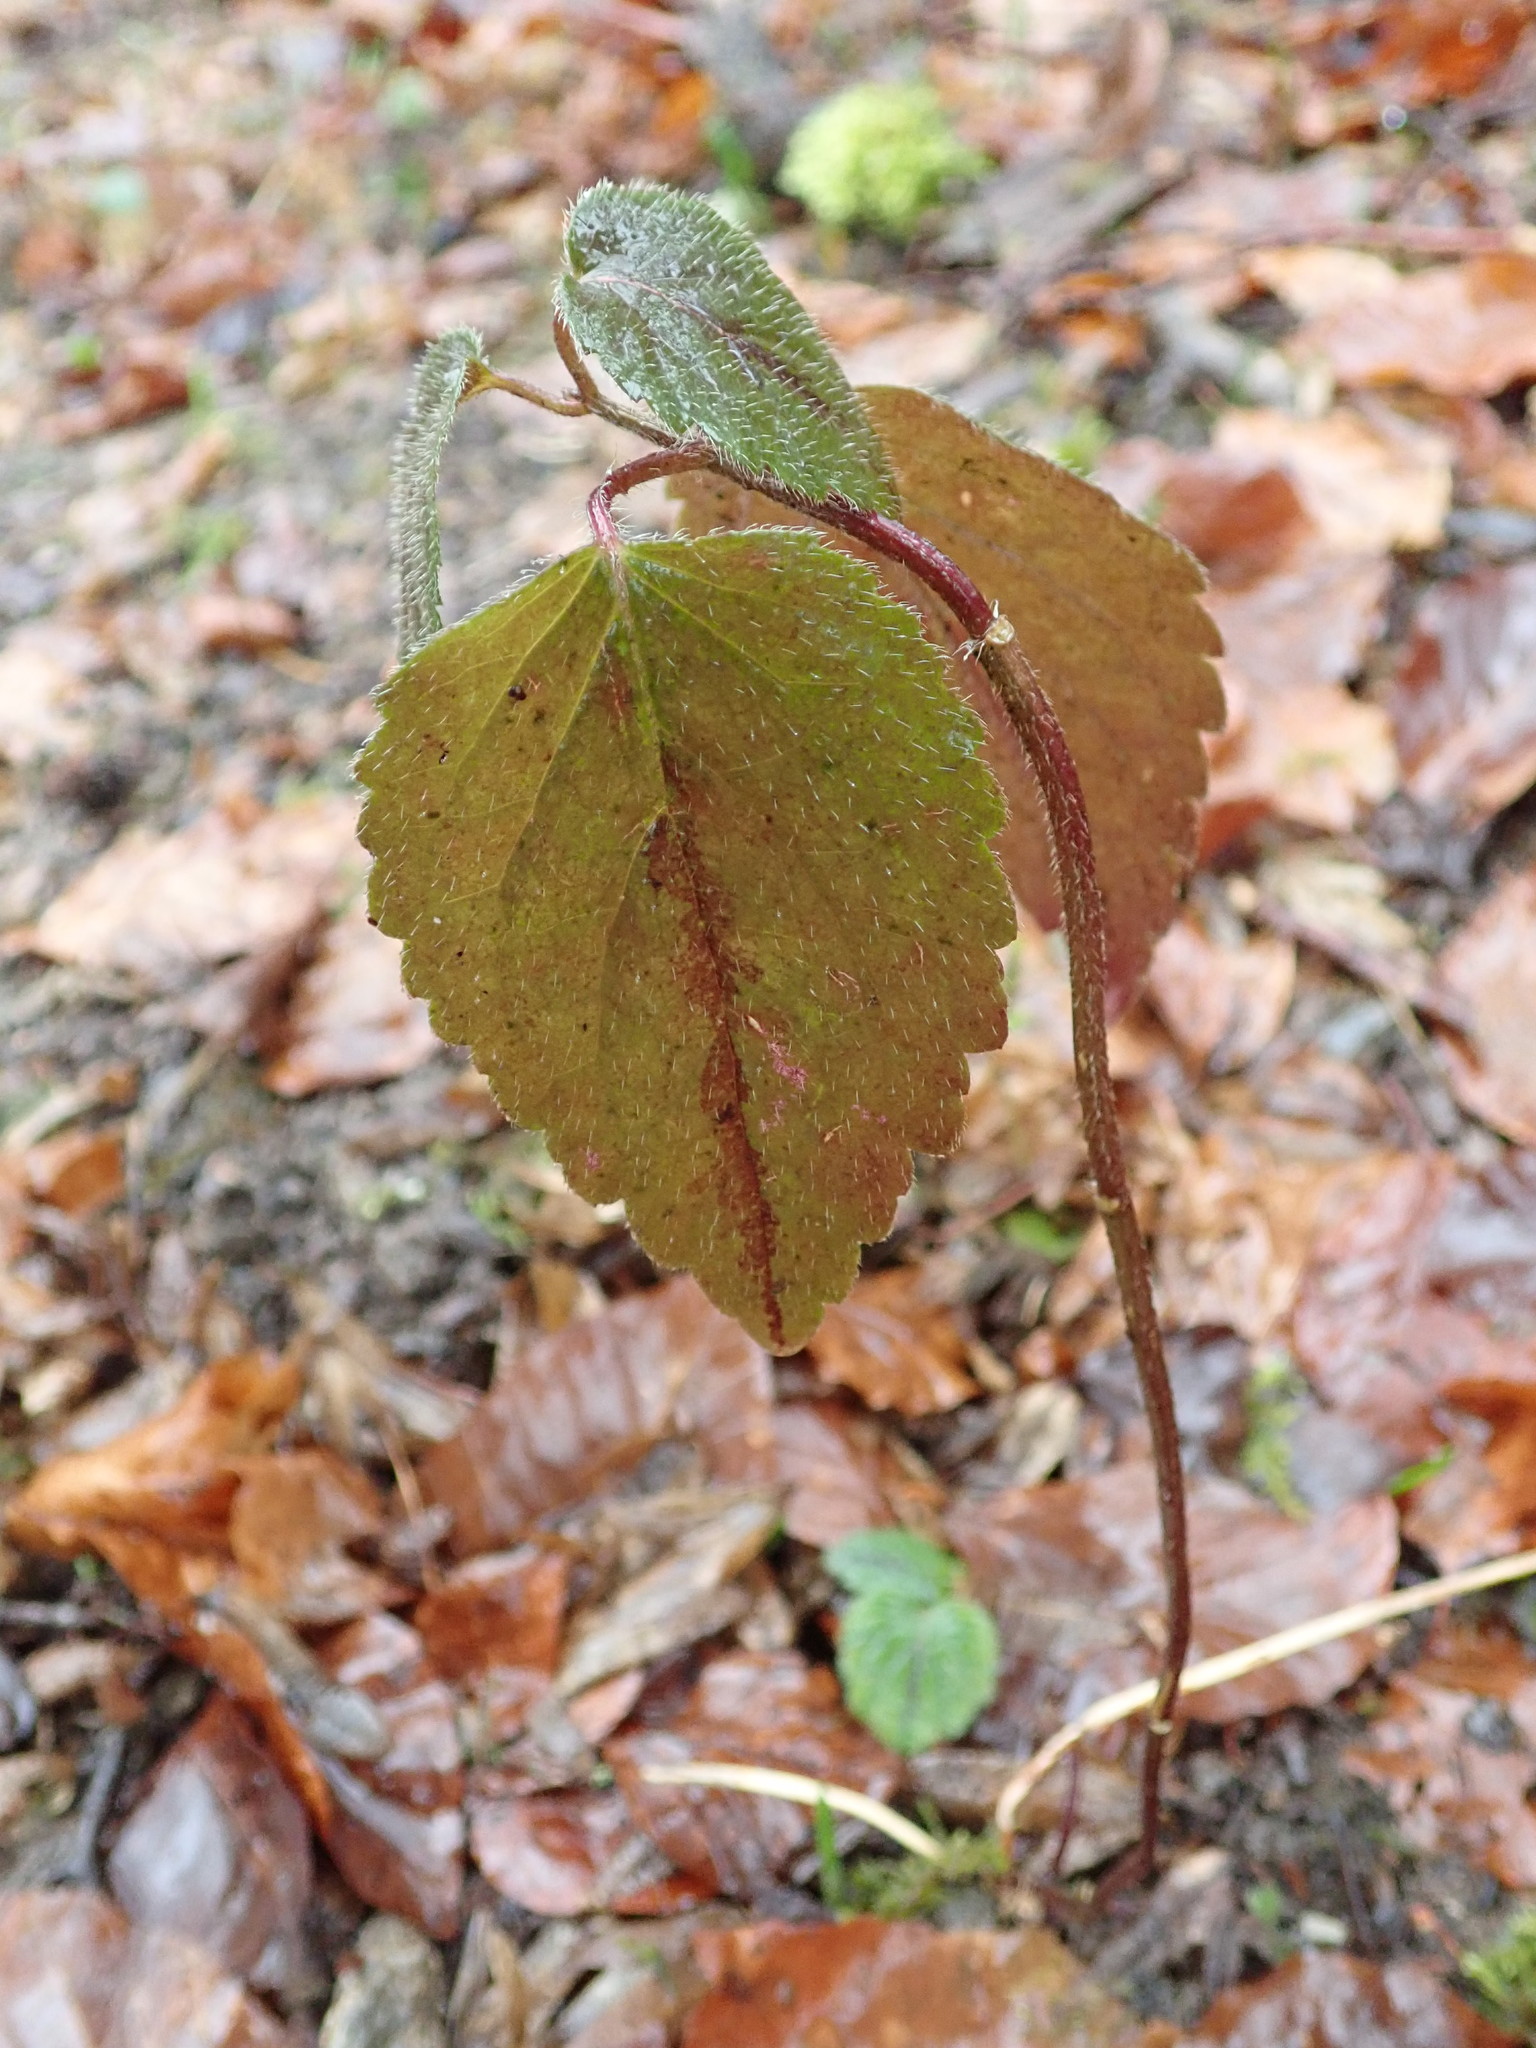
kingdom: Plantae
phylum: Tracheophyta
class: Magnoliopsida
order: Lamiales
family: Lamiaceae
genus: Lamium
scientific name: Lamium galeobdolon
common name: Yellow archangel
